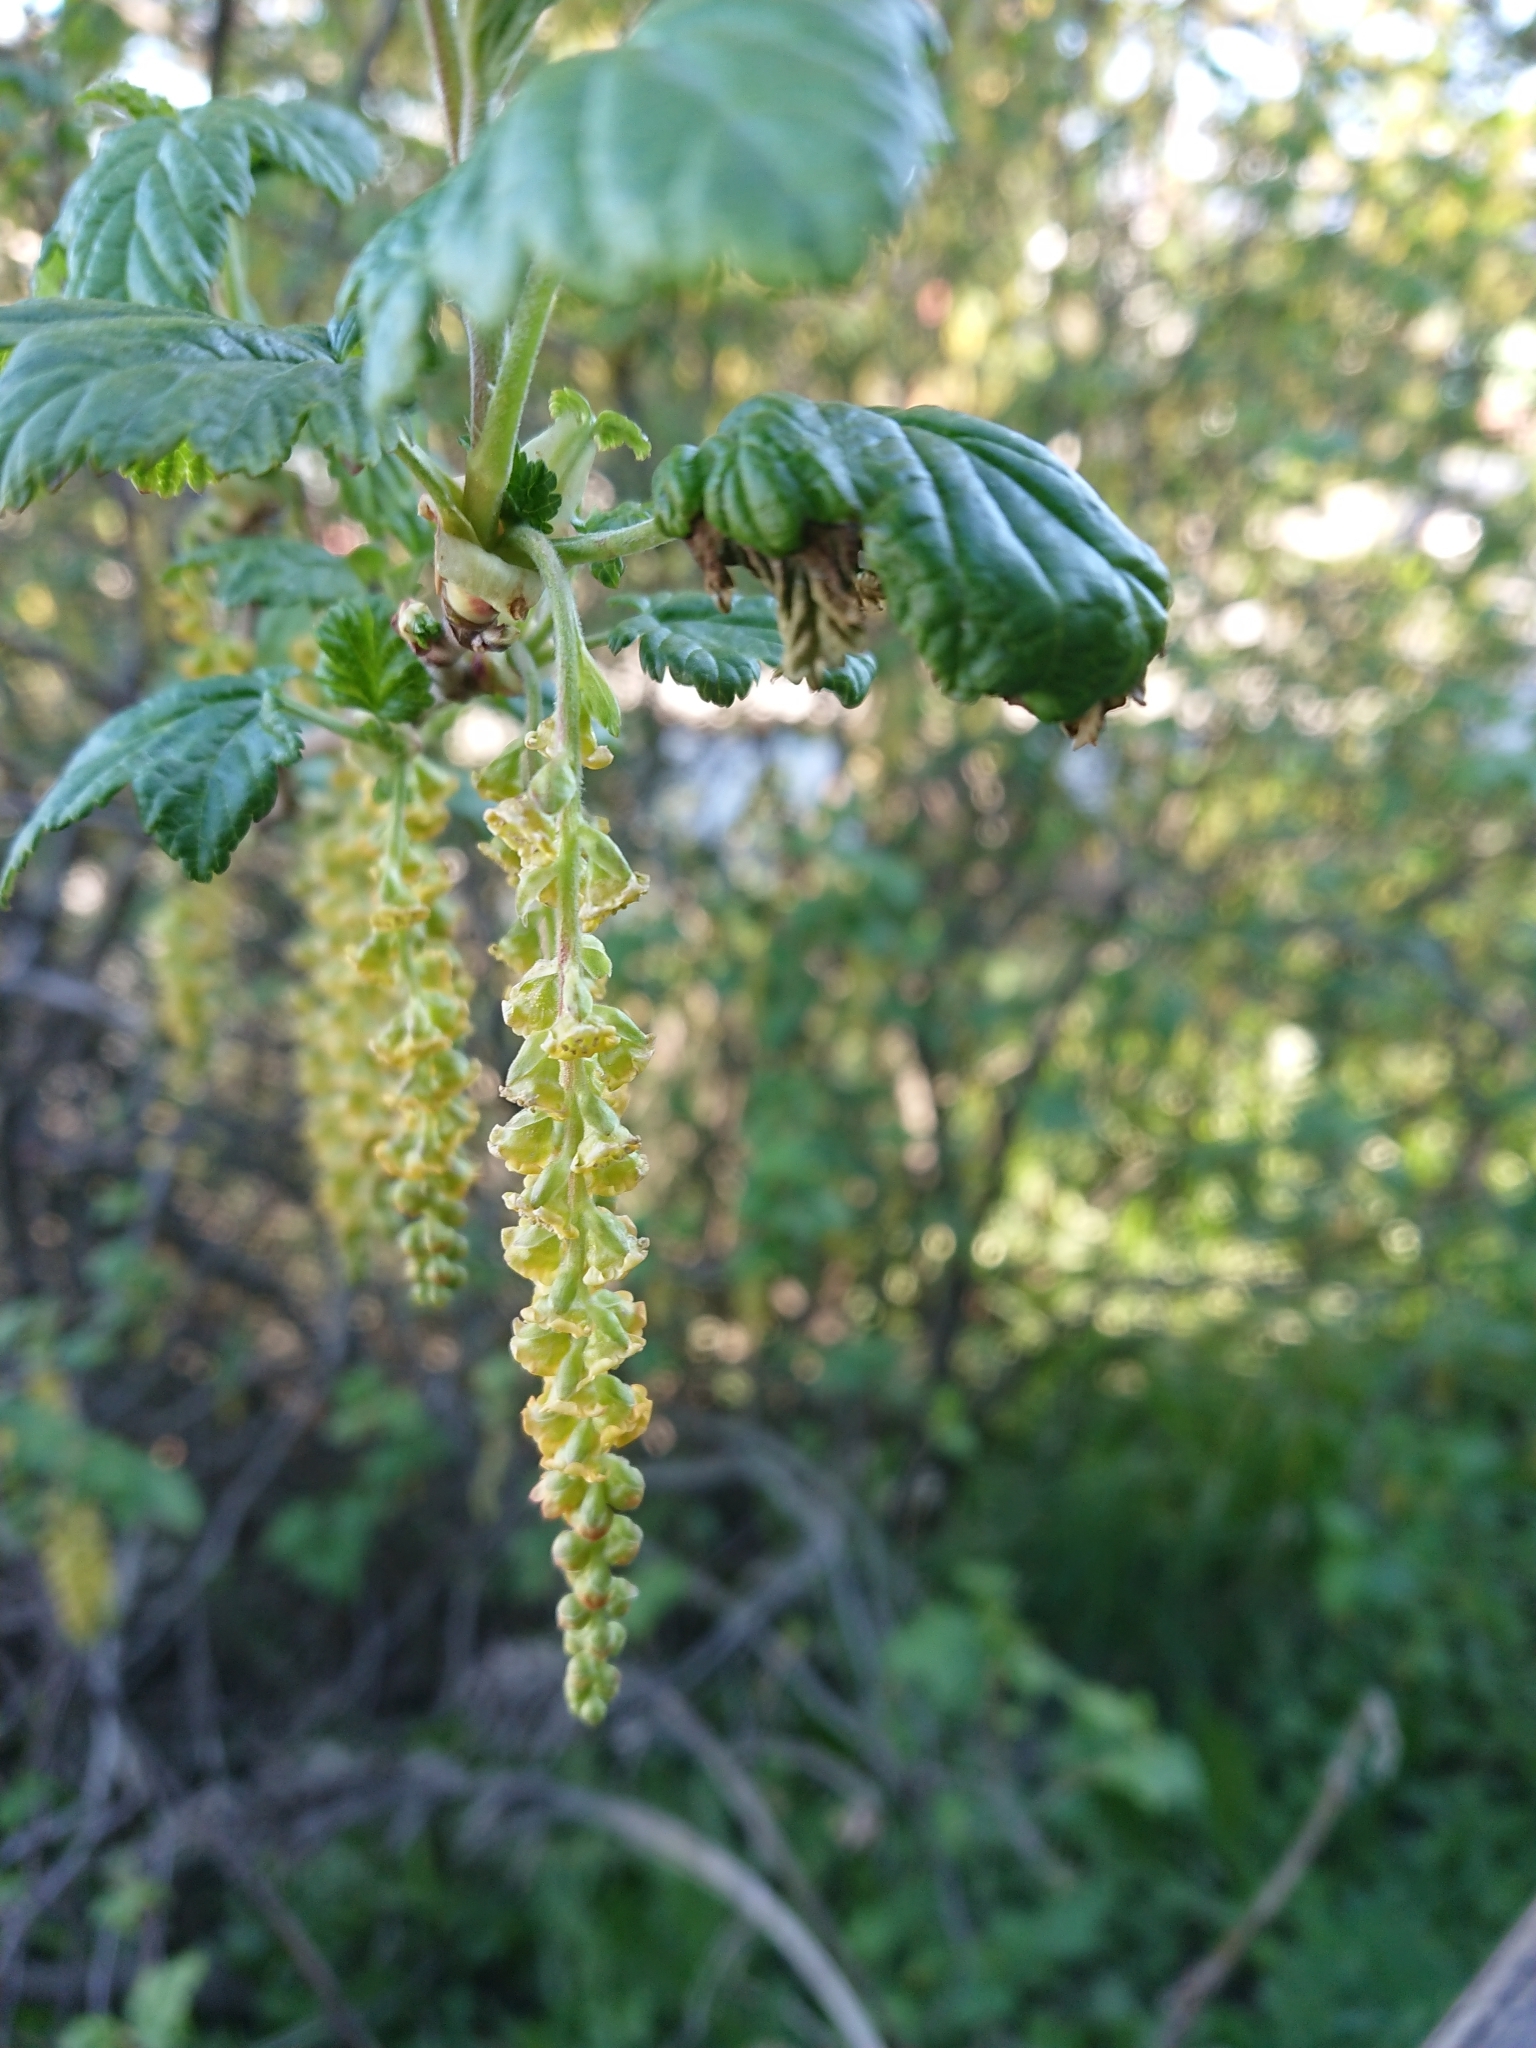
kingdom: Plantae
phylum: Tracheophyta
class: Magnoliopsida
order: Saxifragales
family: Grossulariaceae
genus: Ribes
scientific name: Ribes magellanicum
